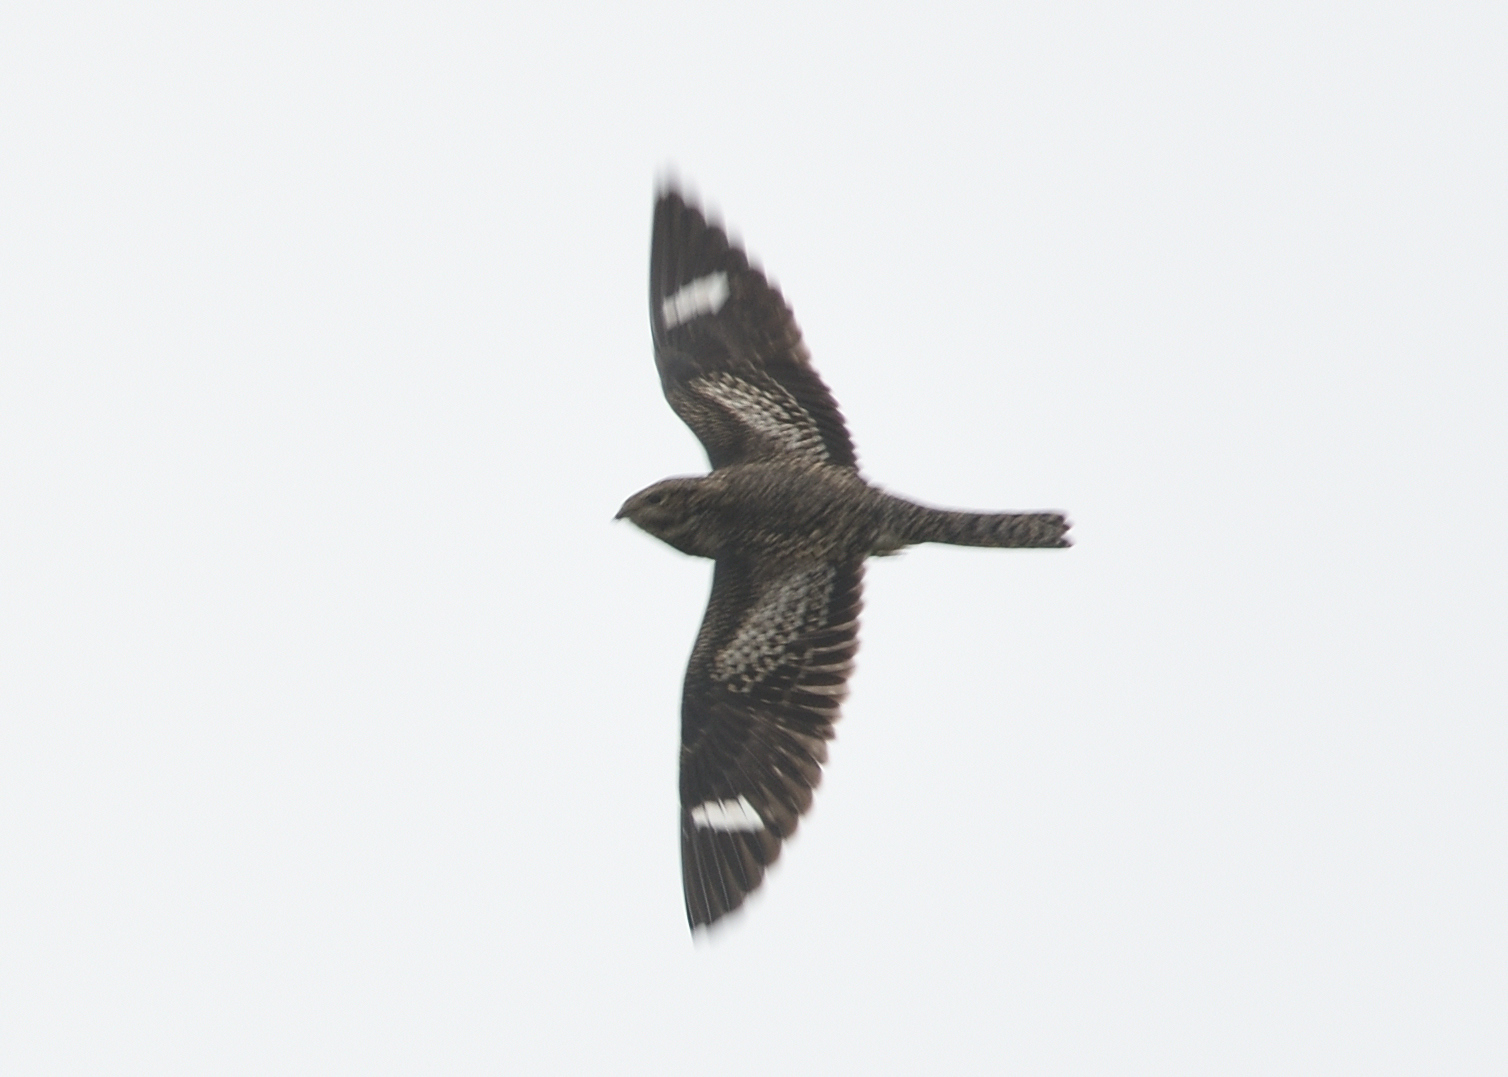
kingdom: Animalia
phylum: Chordata
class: Aves
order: Caprimulgiformes
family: Caprimulgidae
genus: Chordeiles
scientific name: Chordeiles minor
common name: Common nighthawk
